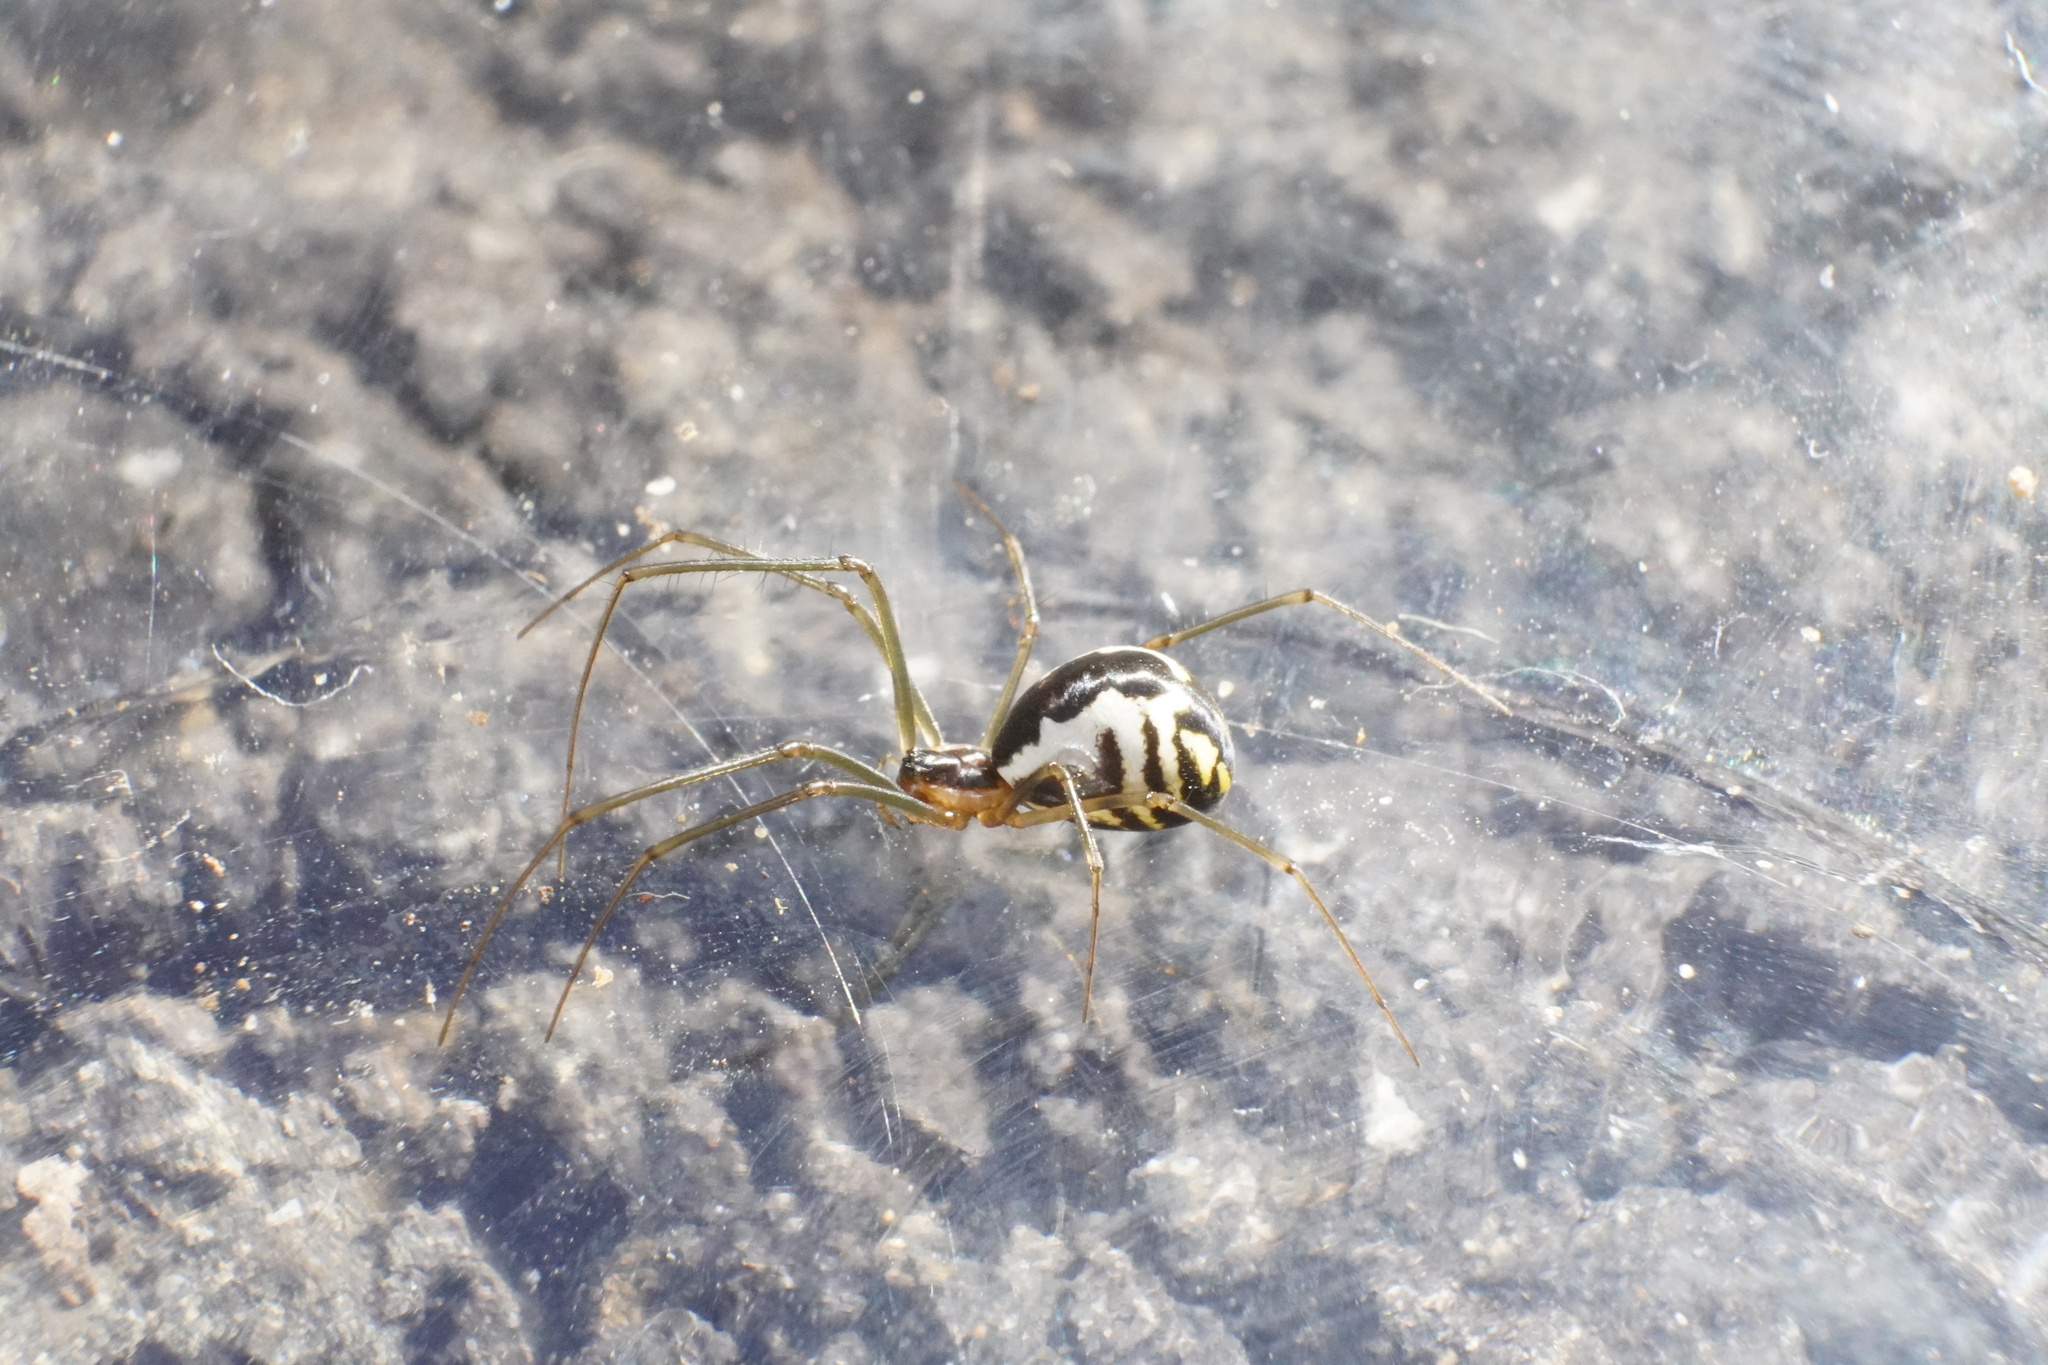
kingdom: Animalia
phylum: Arthropoda
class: Arachnida
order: Araneae
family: Linyphiidae
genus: Neriene
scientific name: Neriene radiata
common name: Filmy dome spider
